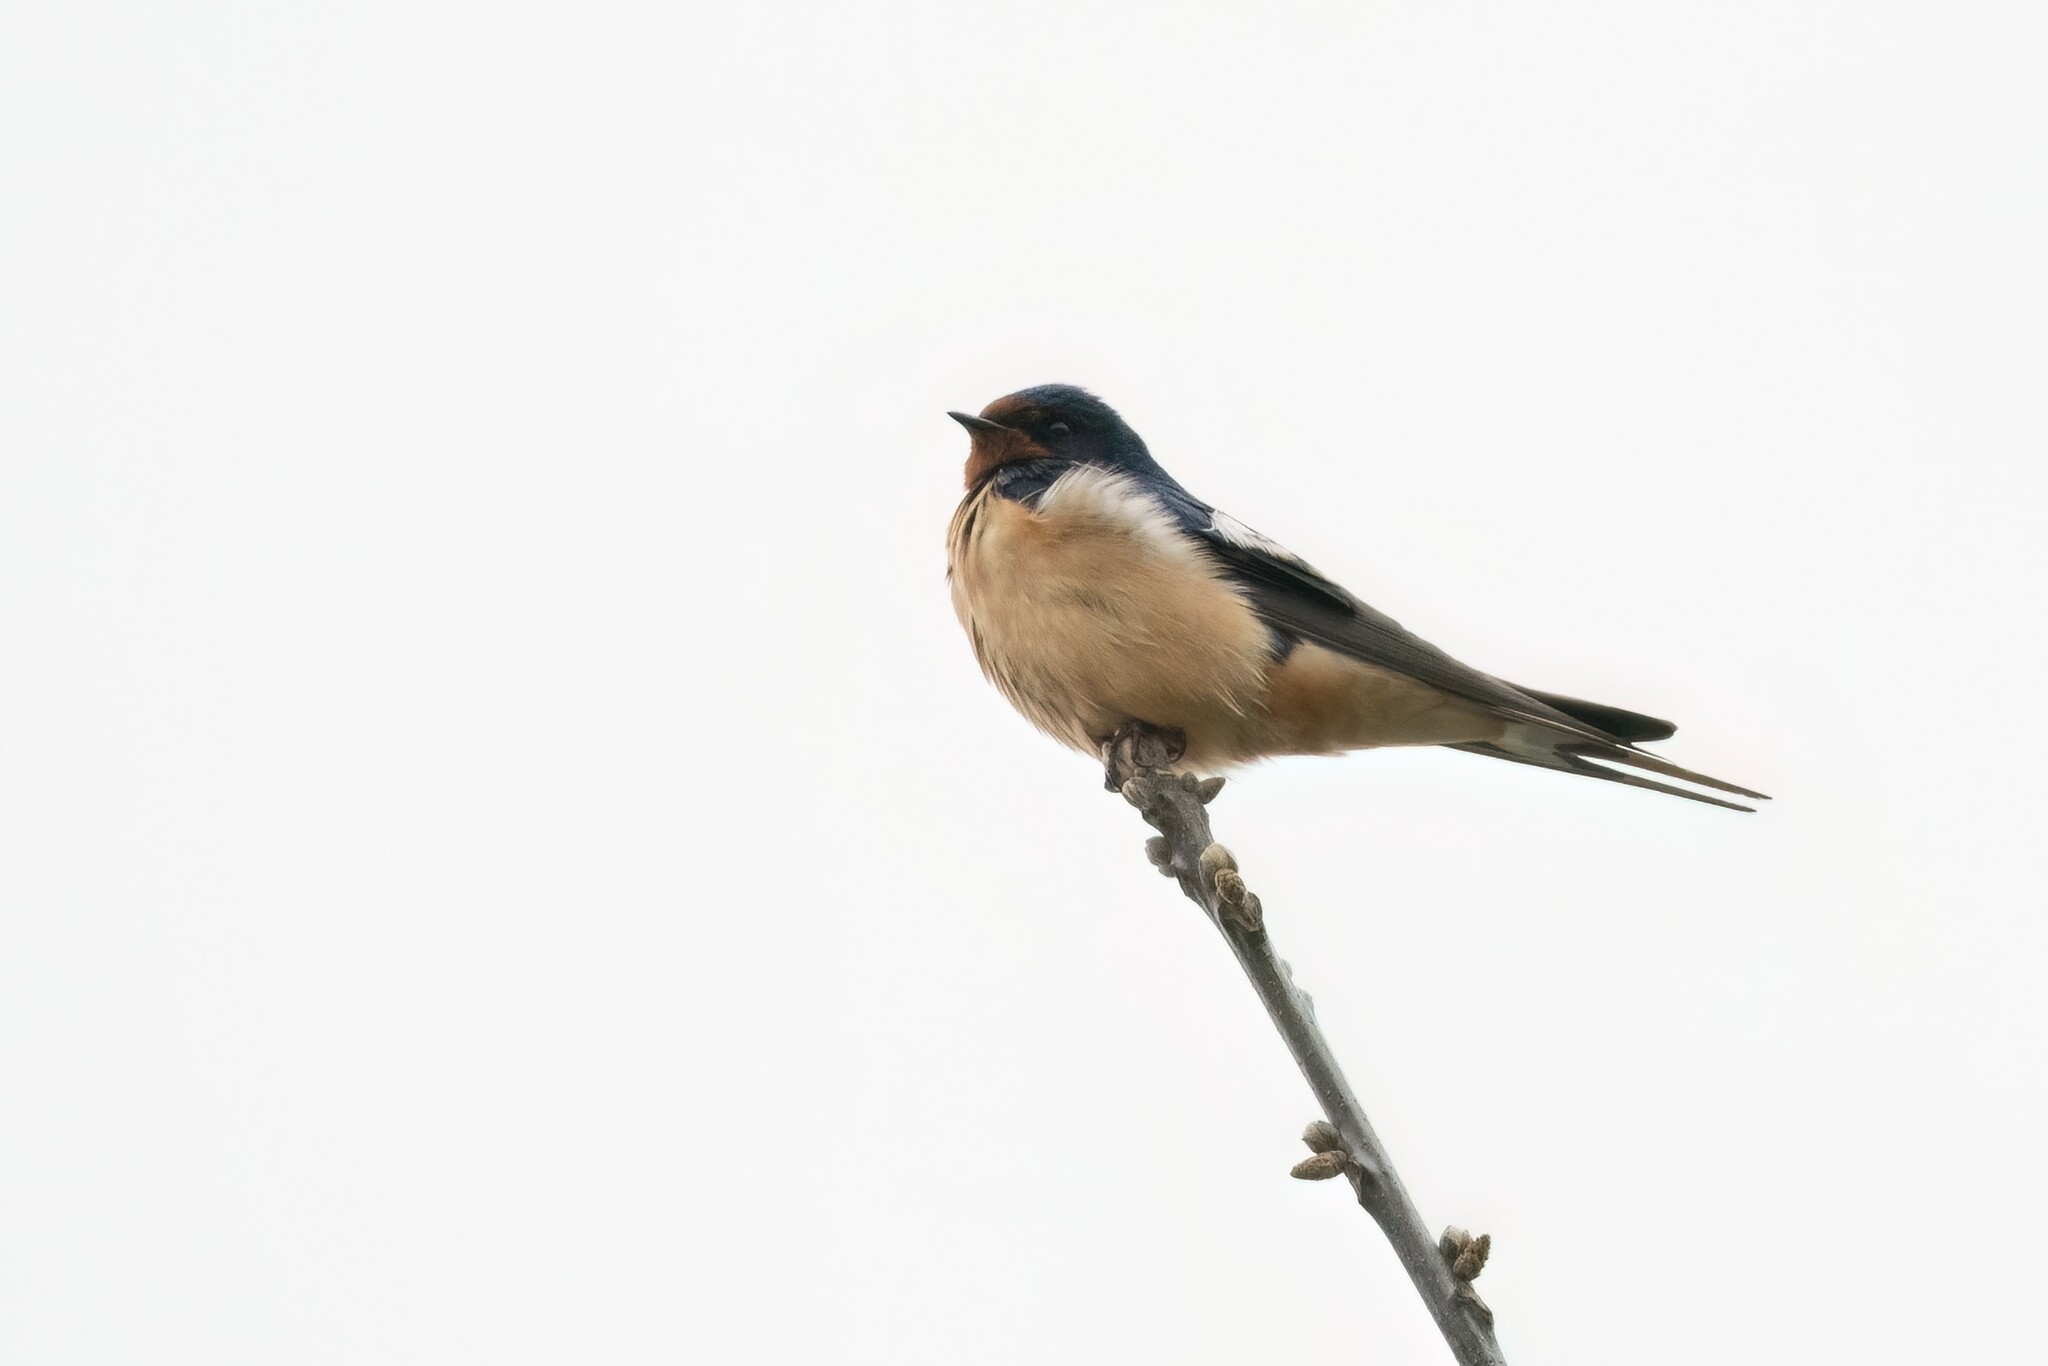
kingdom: Animalia
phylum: Chordata
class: Aves
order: Passeriformes
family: Hirundinidae
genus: Hirundo
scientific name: Hirundo rustica
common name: Barn swallow
